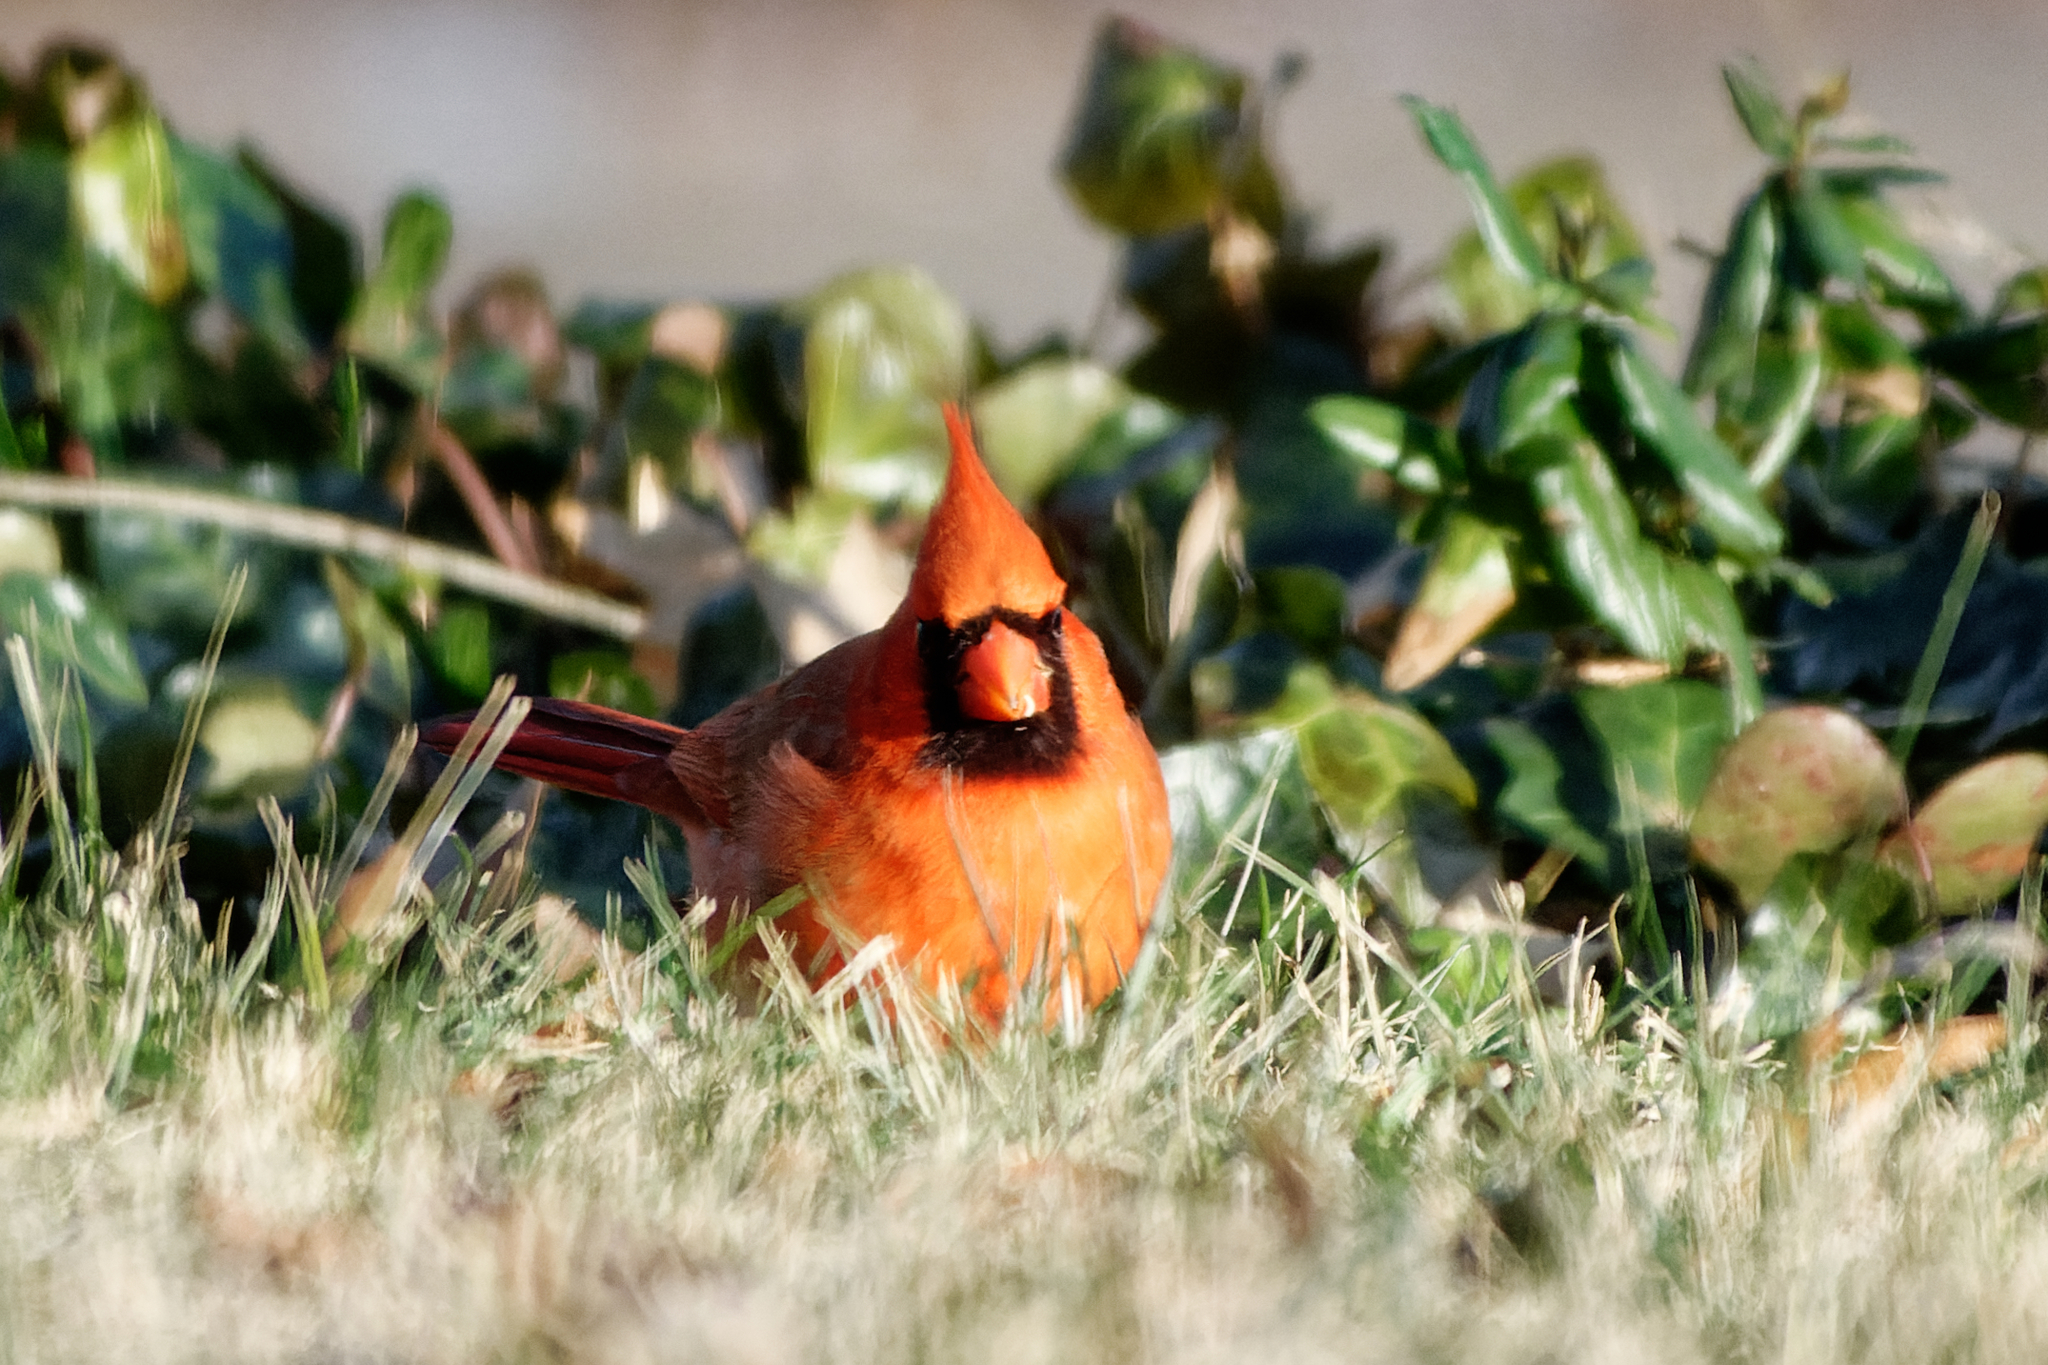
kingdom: Animalia
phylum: Chordata
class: Aves
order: Passeriformes
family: Cardinalidae
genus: Cardinalis
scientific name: Cardinalis cardinalis
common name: Northern cardinal
